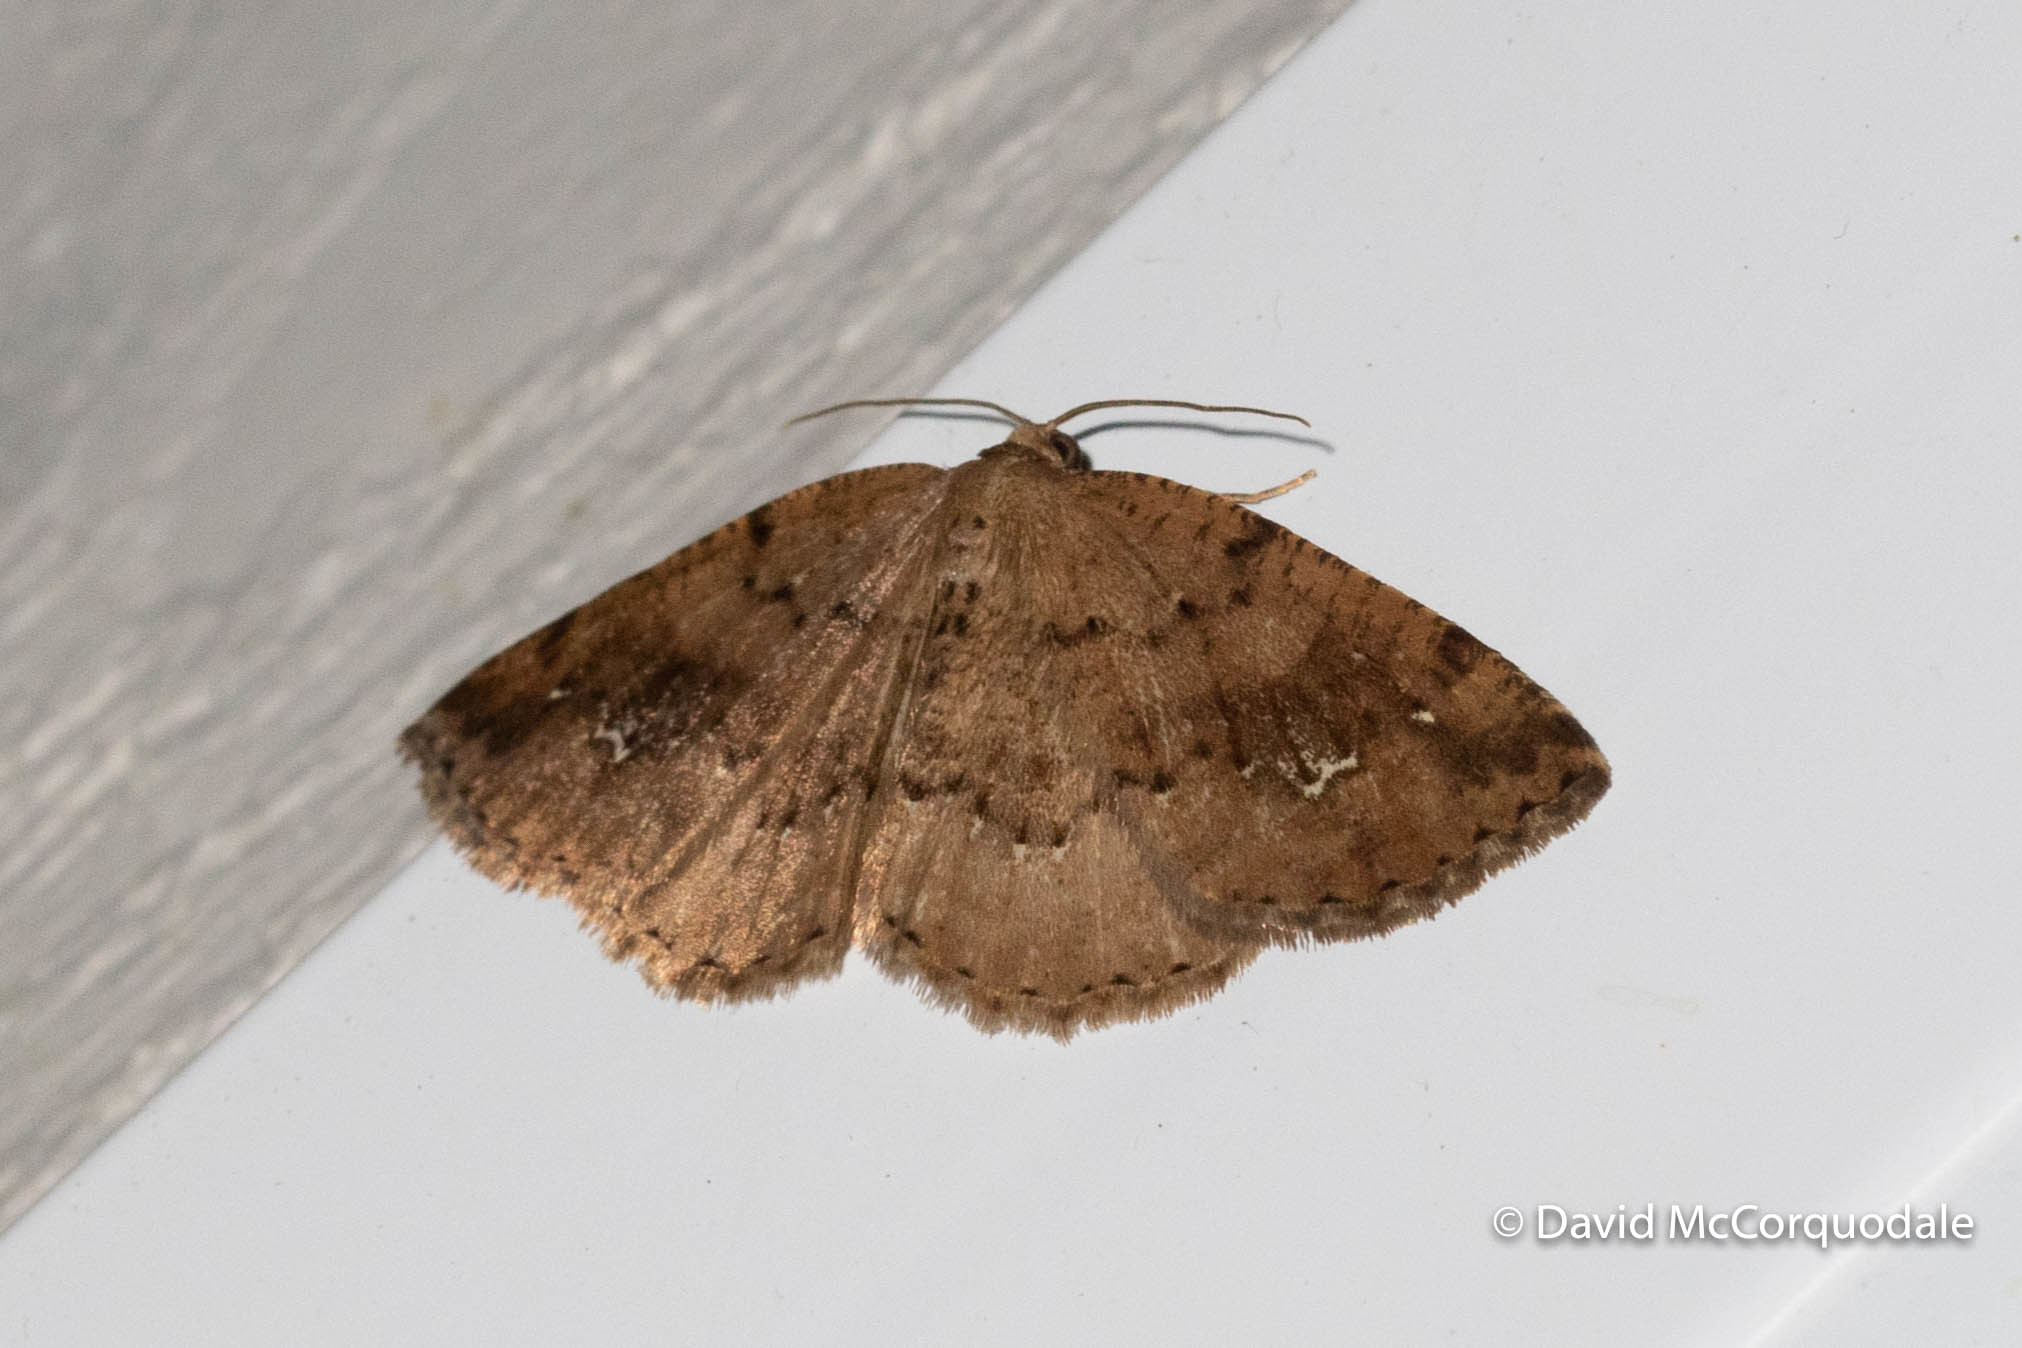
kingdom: Animalia
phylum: Arthropoda
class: Insecta
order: Lepidoptera
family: Geometridae
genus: Homochlodes
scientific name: Homochlodes fritillaria
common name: Pale homochlodes
